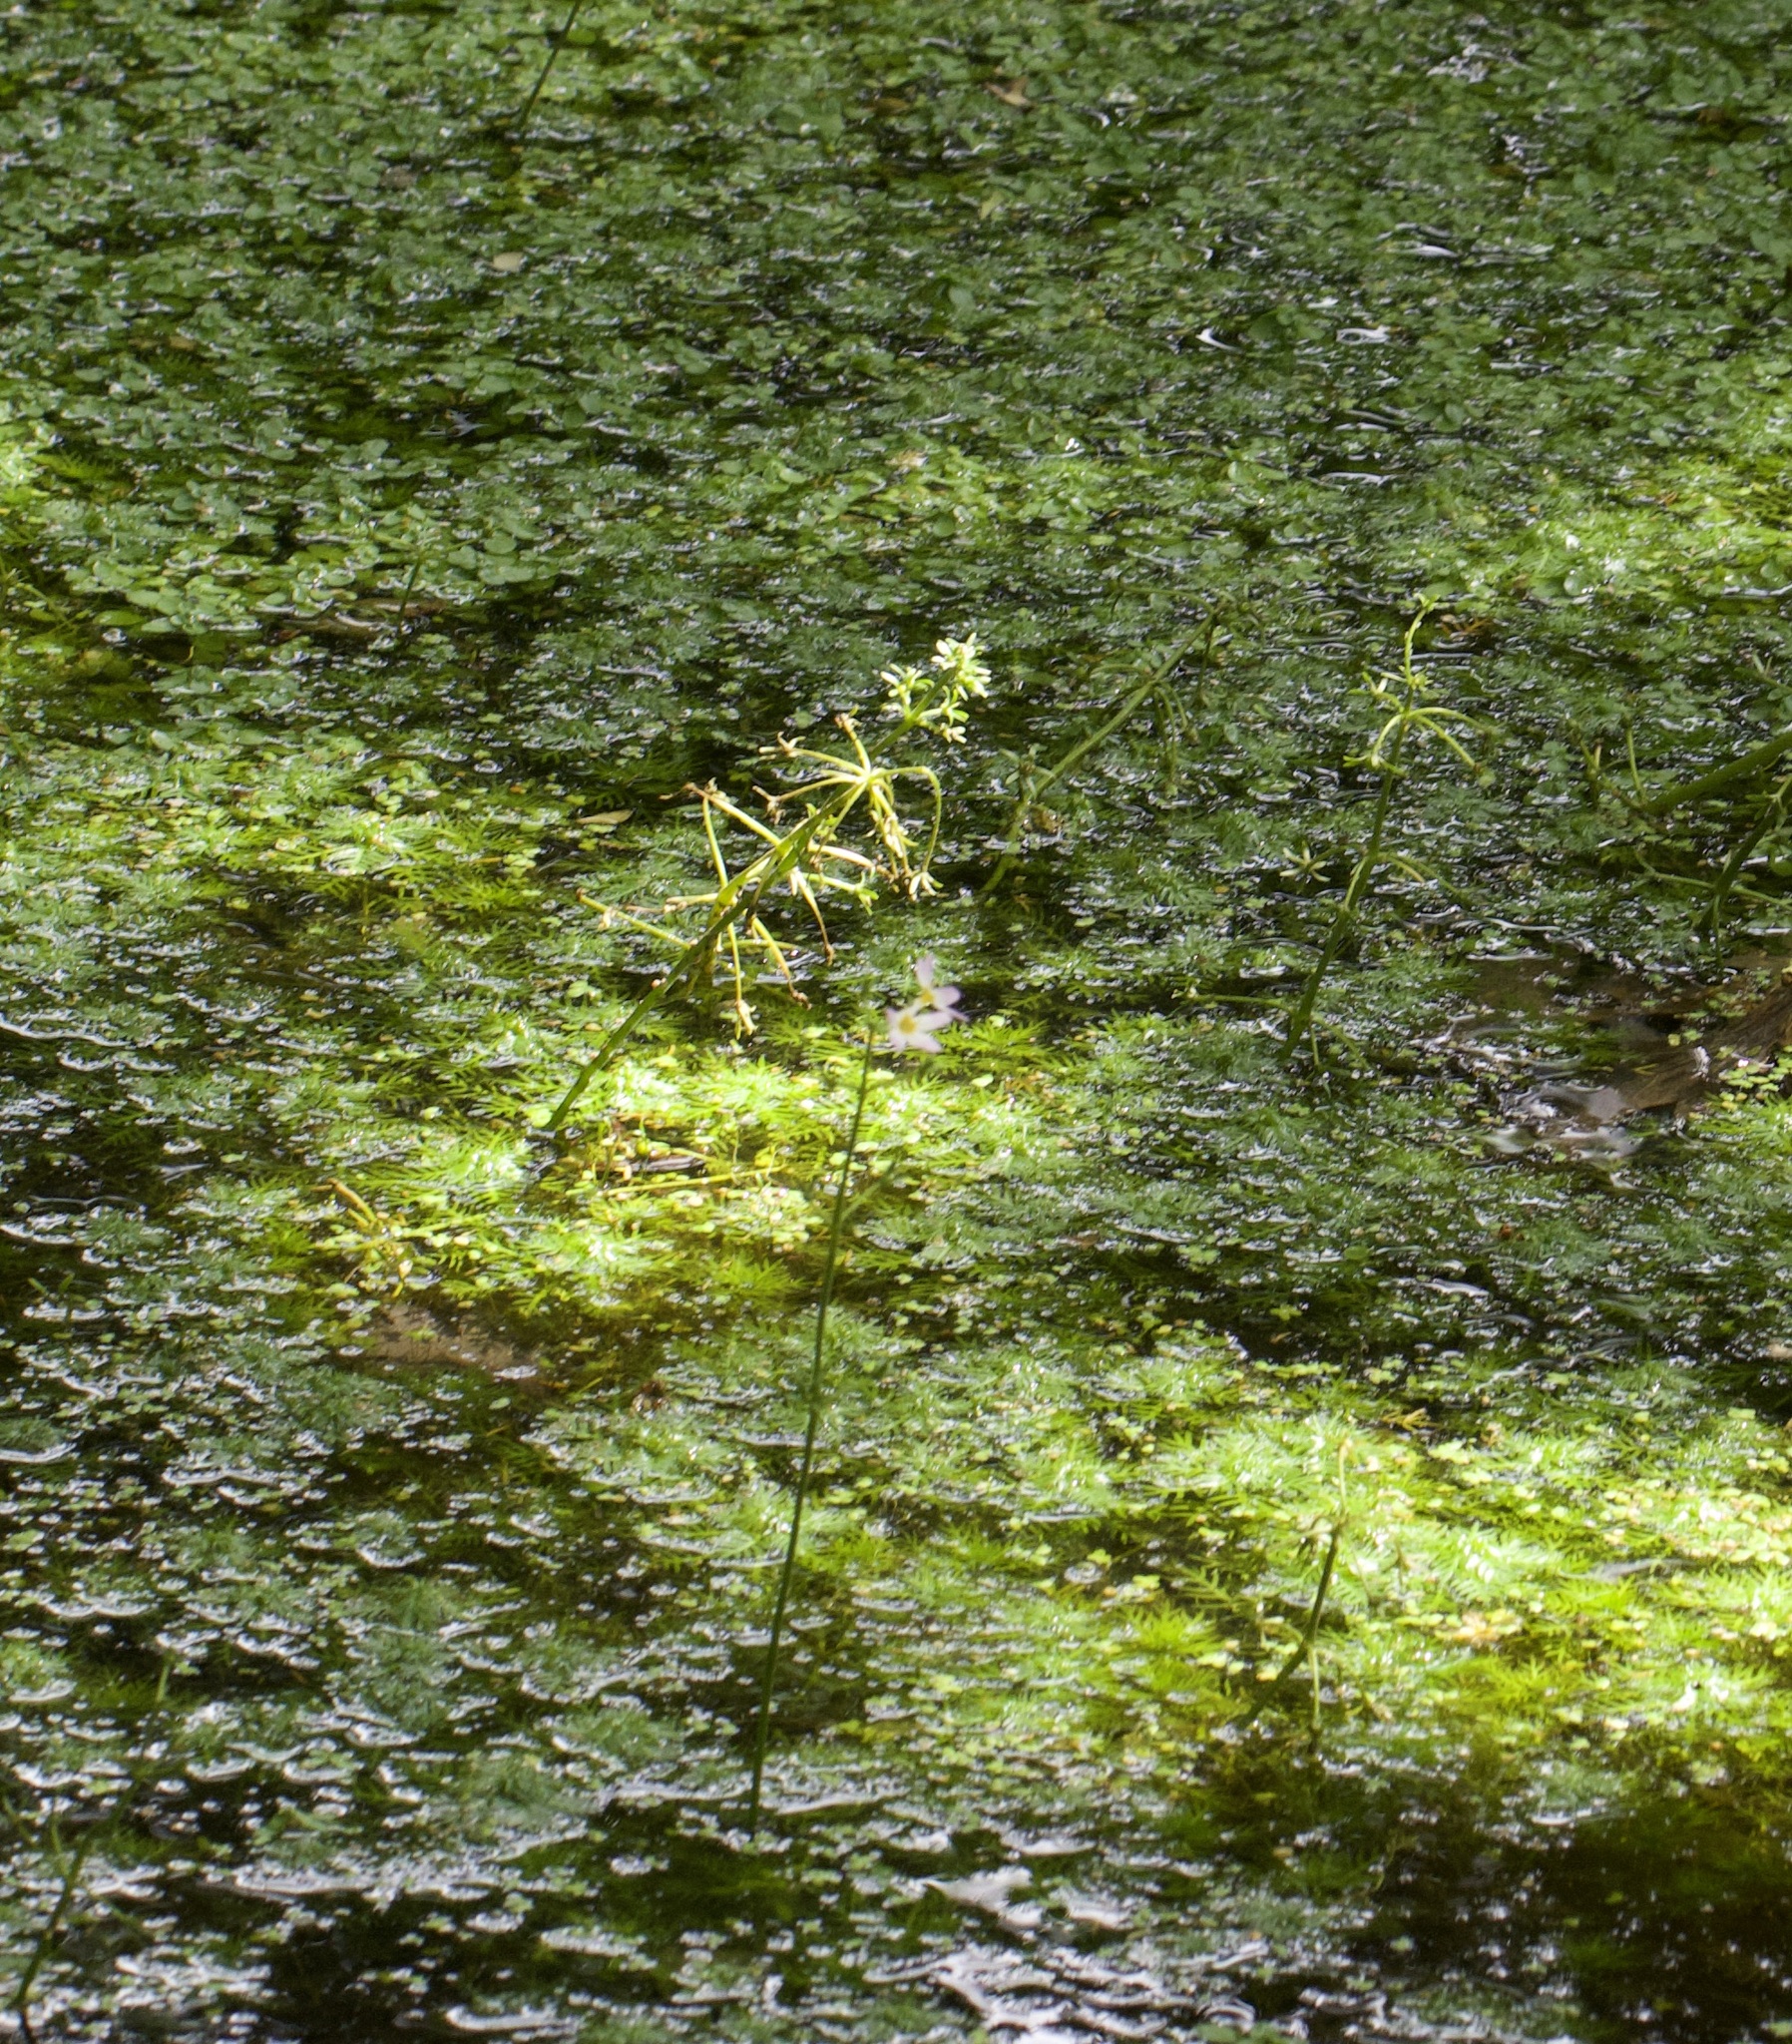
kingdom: Plantae
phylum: Tracheophyta
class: Magnoliopsida
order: Ericales
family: Primulaceae
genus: Hottonia
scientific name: Hottonia palustris
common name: Water-violet
